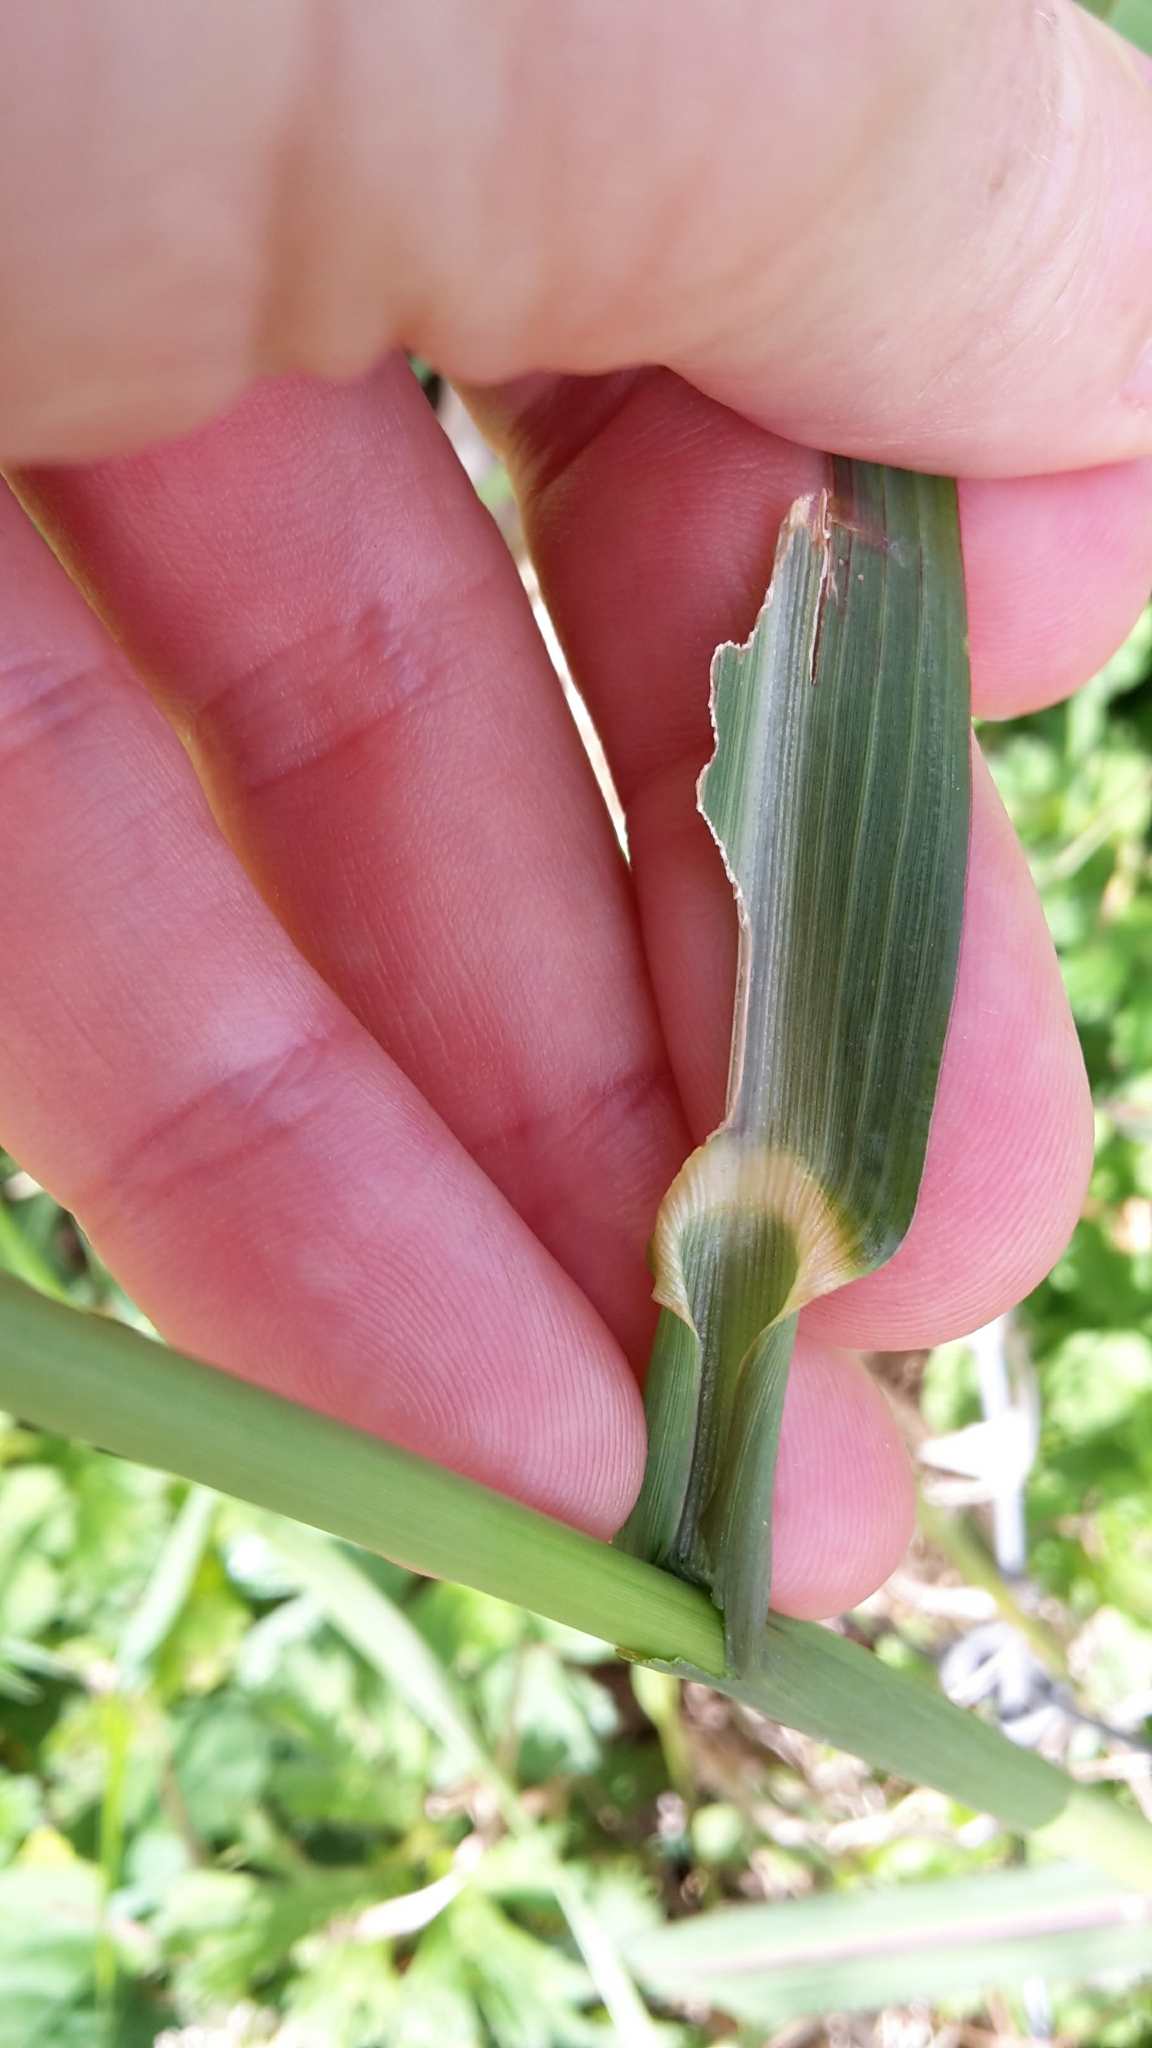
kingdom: Plantae
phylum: Tracheophyta
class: Liliopsida
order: Poales
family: Poaceae
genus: Echinochloa
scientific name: Echinochloa crus-galli
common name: Cockspur
